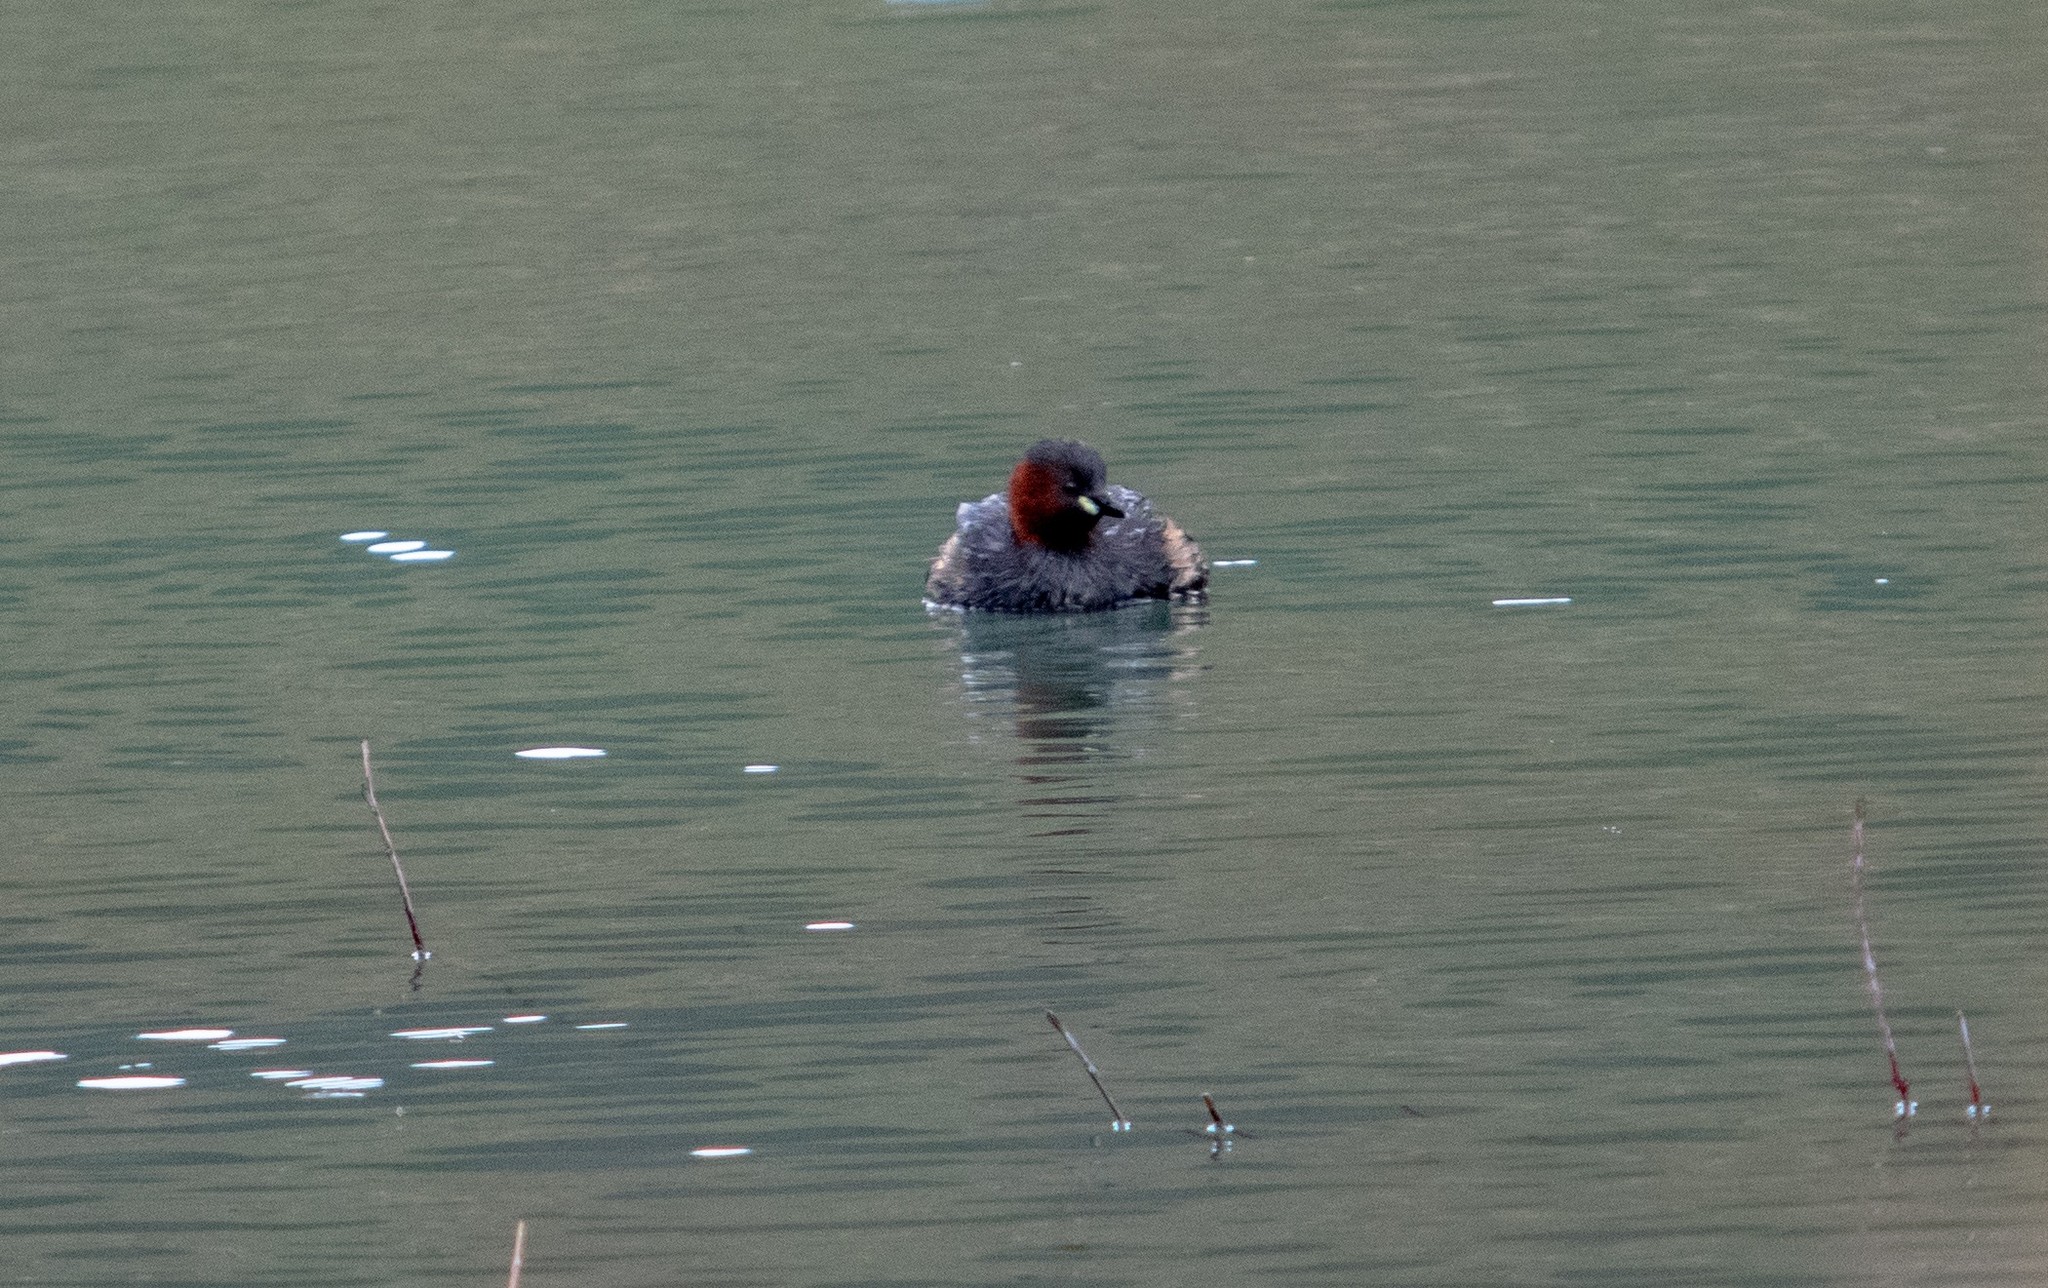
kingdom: Animalia
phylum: Chordata
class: Aves
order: Podicipediformes
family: Podicipedidae
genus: Tachybaptus
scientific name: Tachybaptus ruficollis
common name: Little grebe
